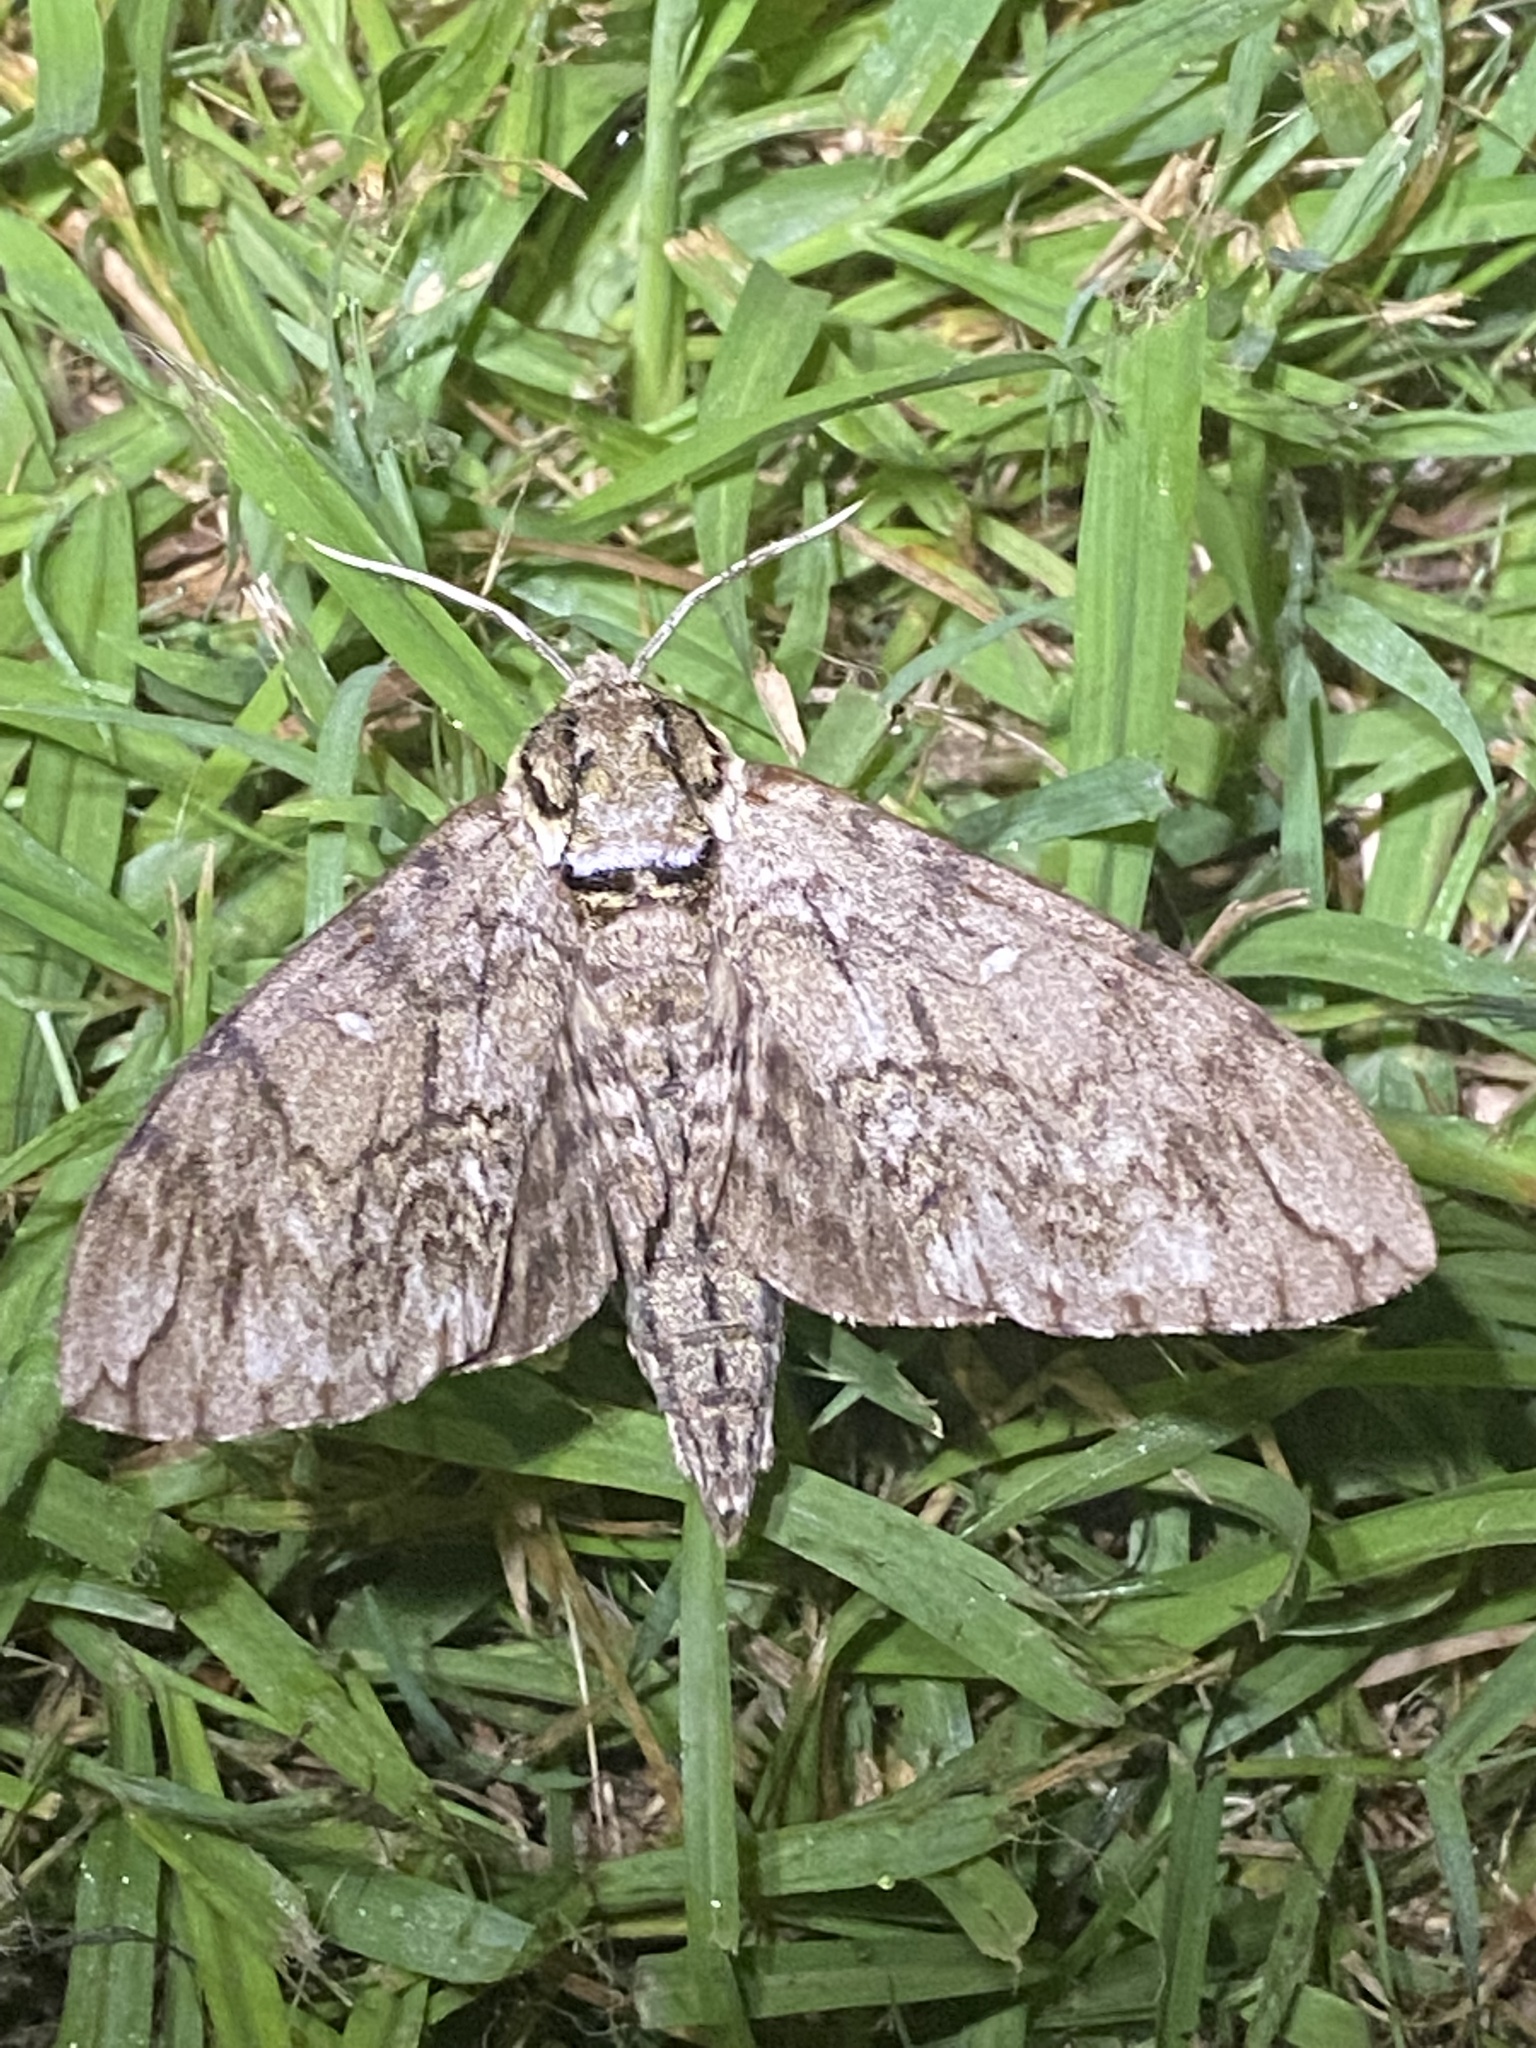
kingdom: Animalia
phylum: Arthropoda
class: Insecta
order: Lepidoptera
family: Sphingidae
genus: Ceratomia
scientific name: Ceratomia undulosa
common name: Waved sphinx
